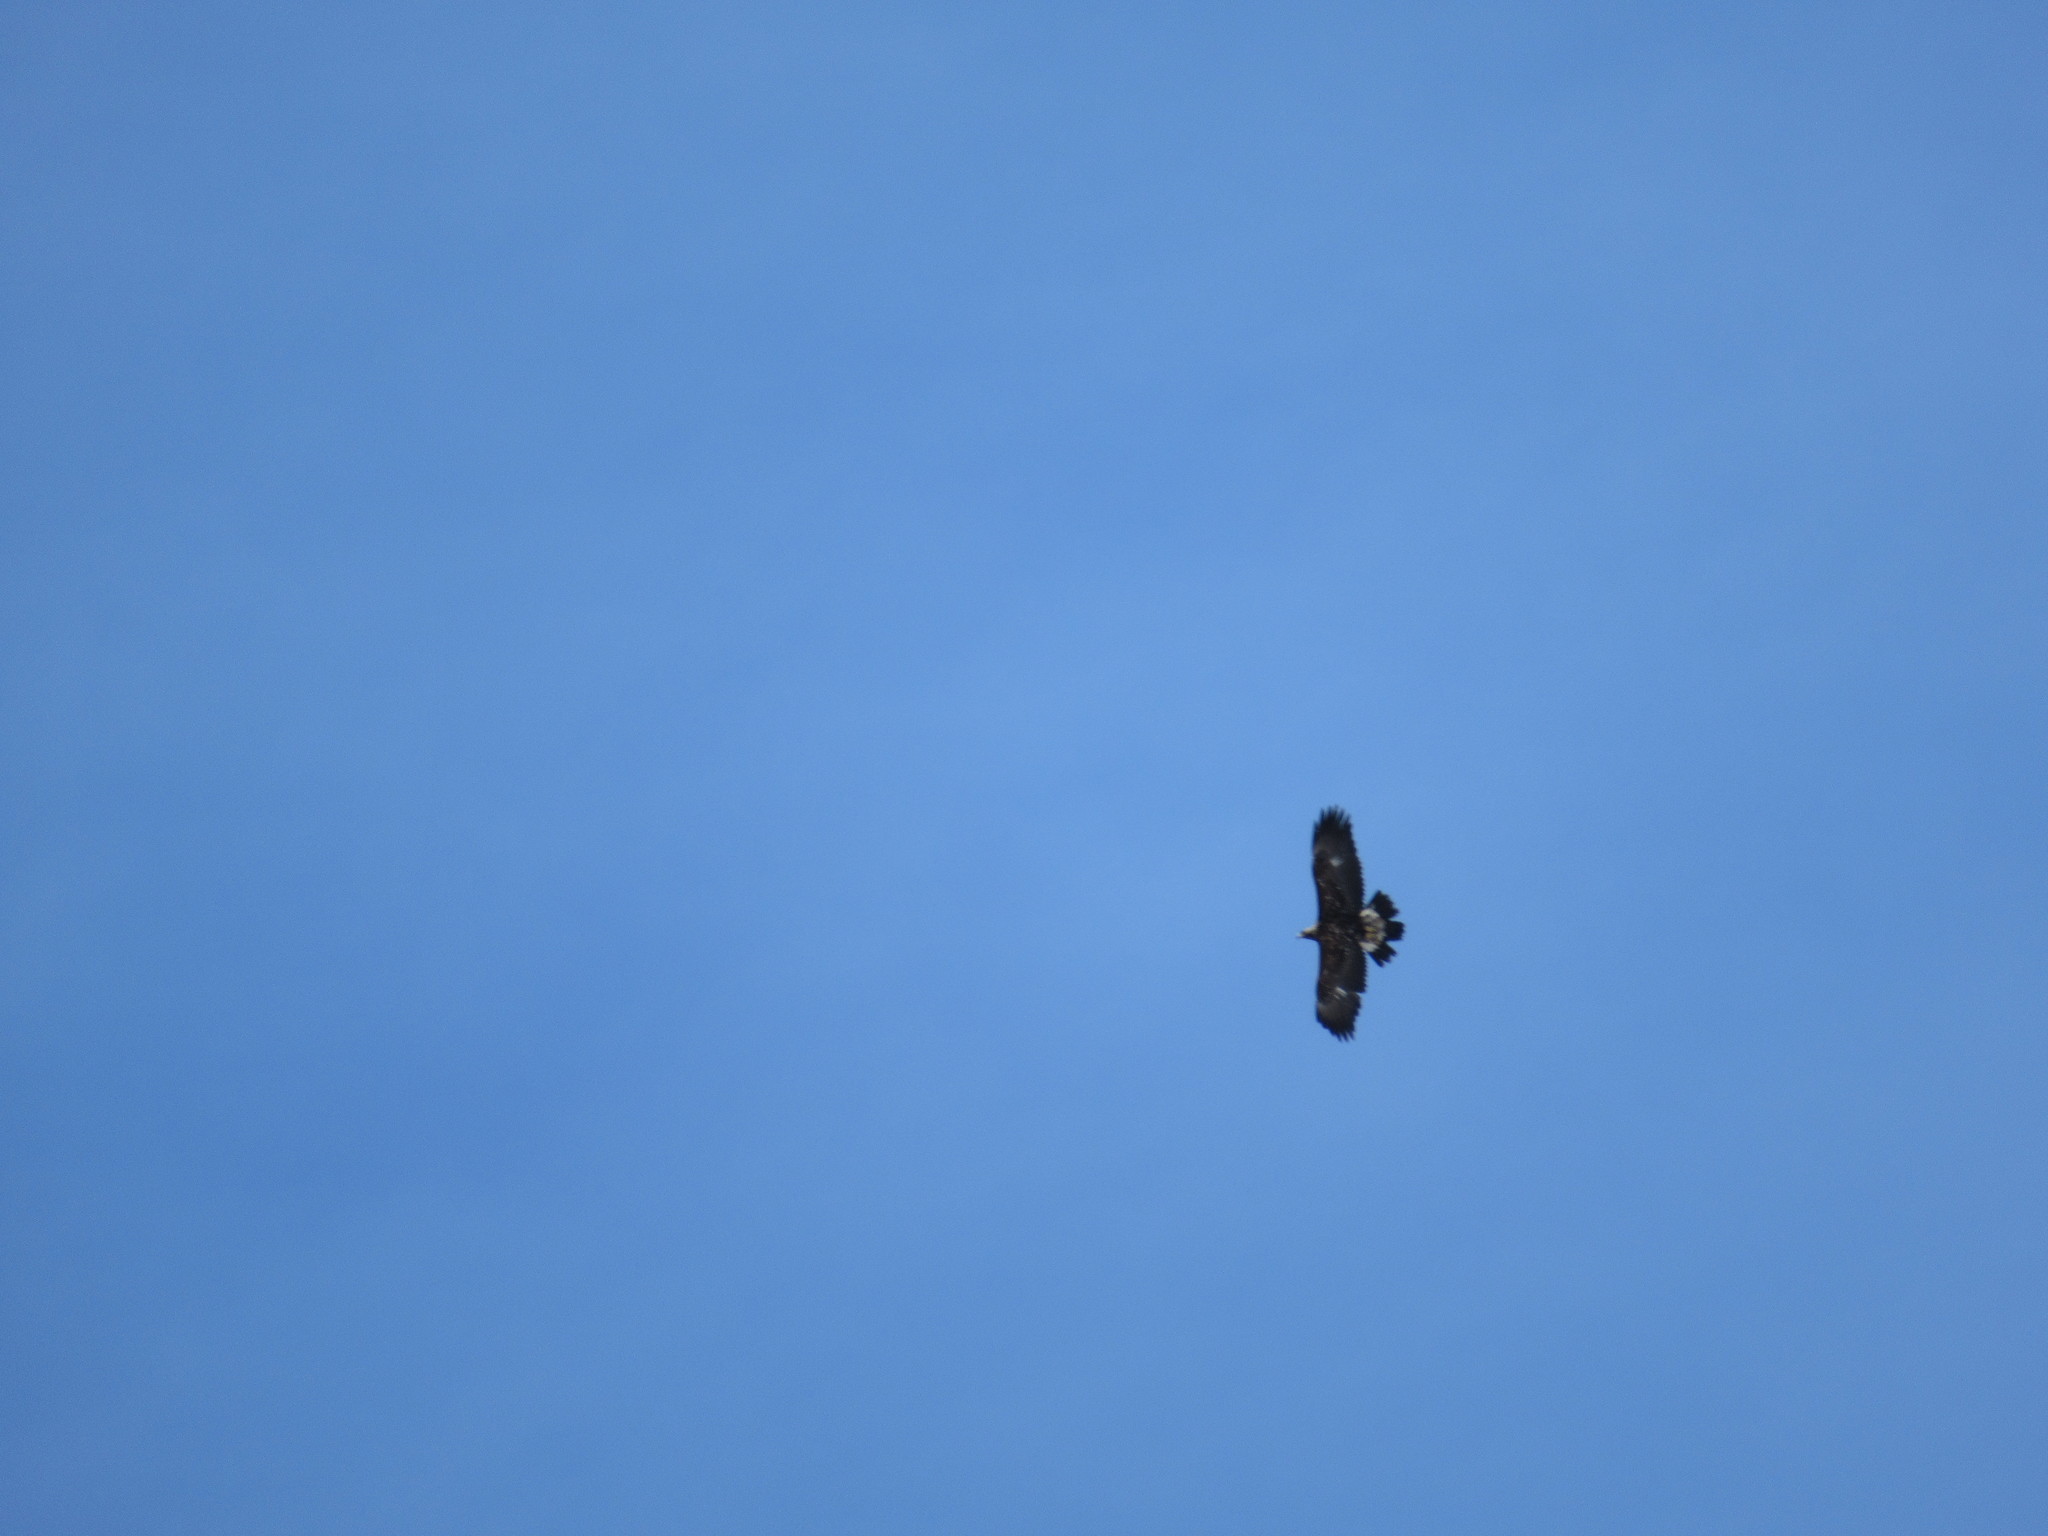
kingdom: Animalia
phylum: Chordata
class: Aves
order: Accipitriformes
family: Accipitridae
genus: Aquila
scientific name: Aquila chrysaetos
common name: Golden eagle
